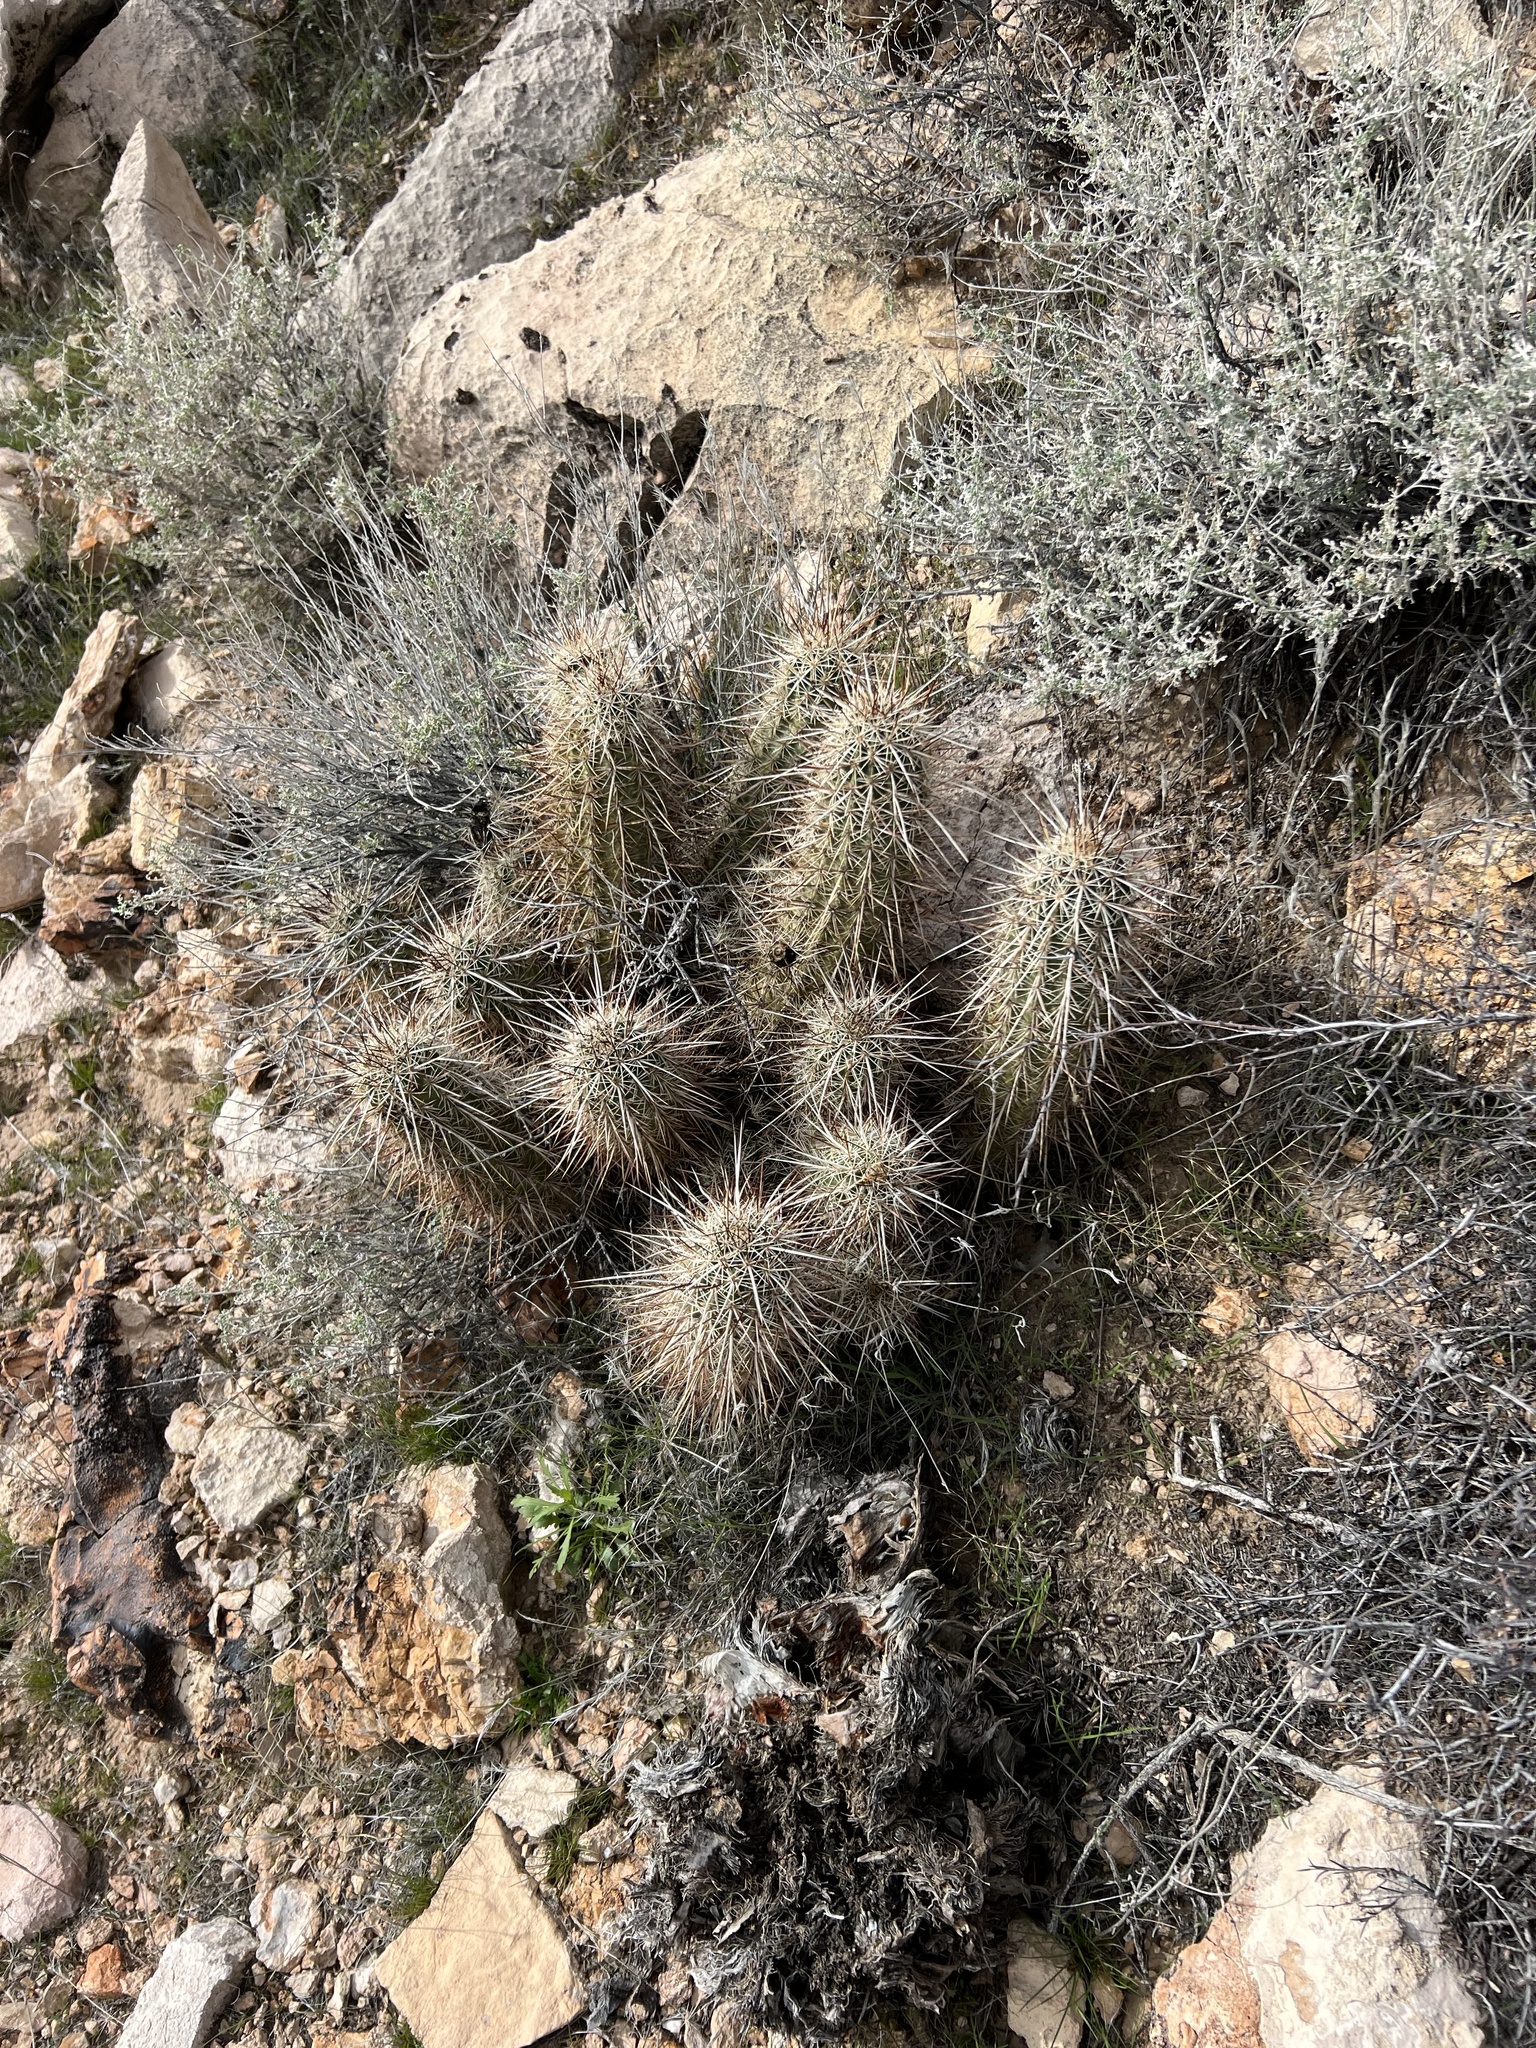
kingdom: Plantae
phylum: Tracheophyta
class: Magnoliopsida
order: Caryophyllales
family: Cactaceae
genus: Echinocereus
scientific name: Echinocereus engelmannii
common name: Engelmann's hedgehog cactus
